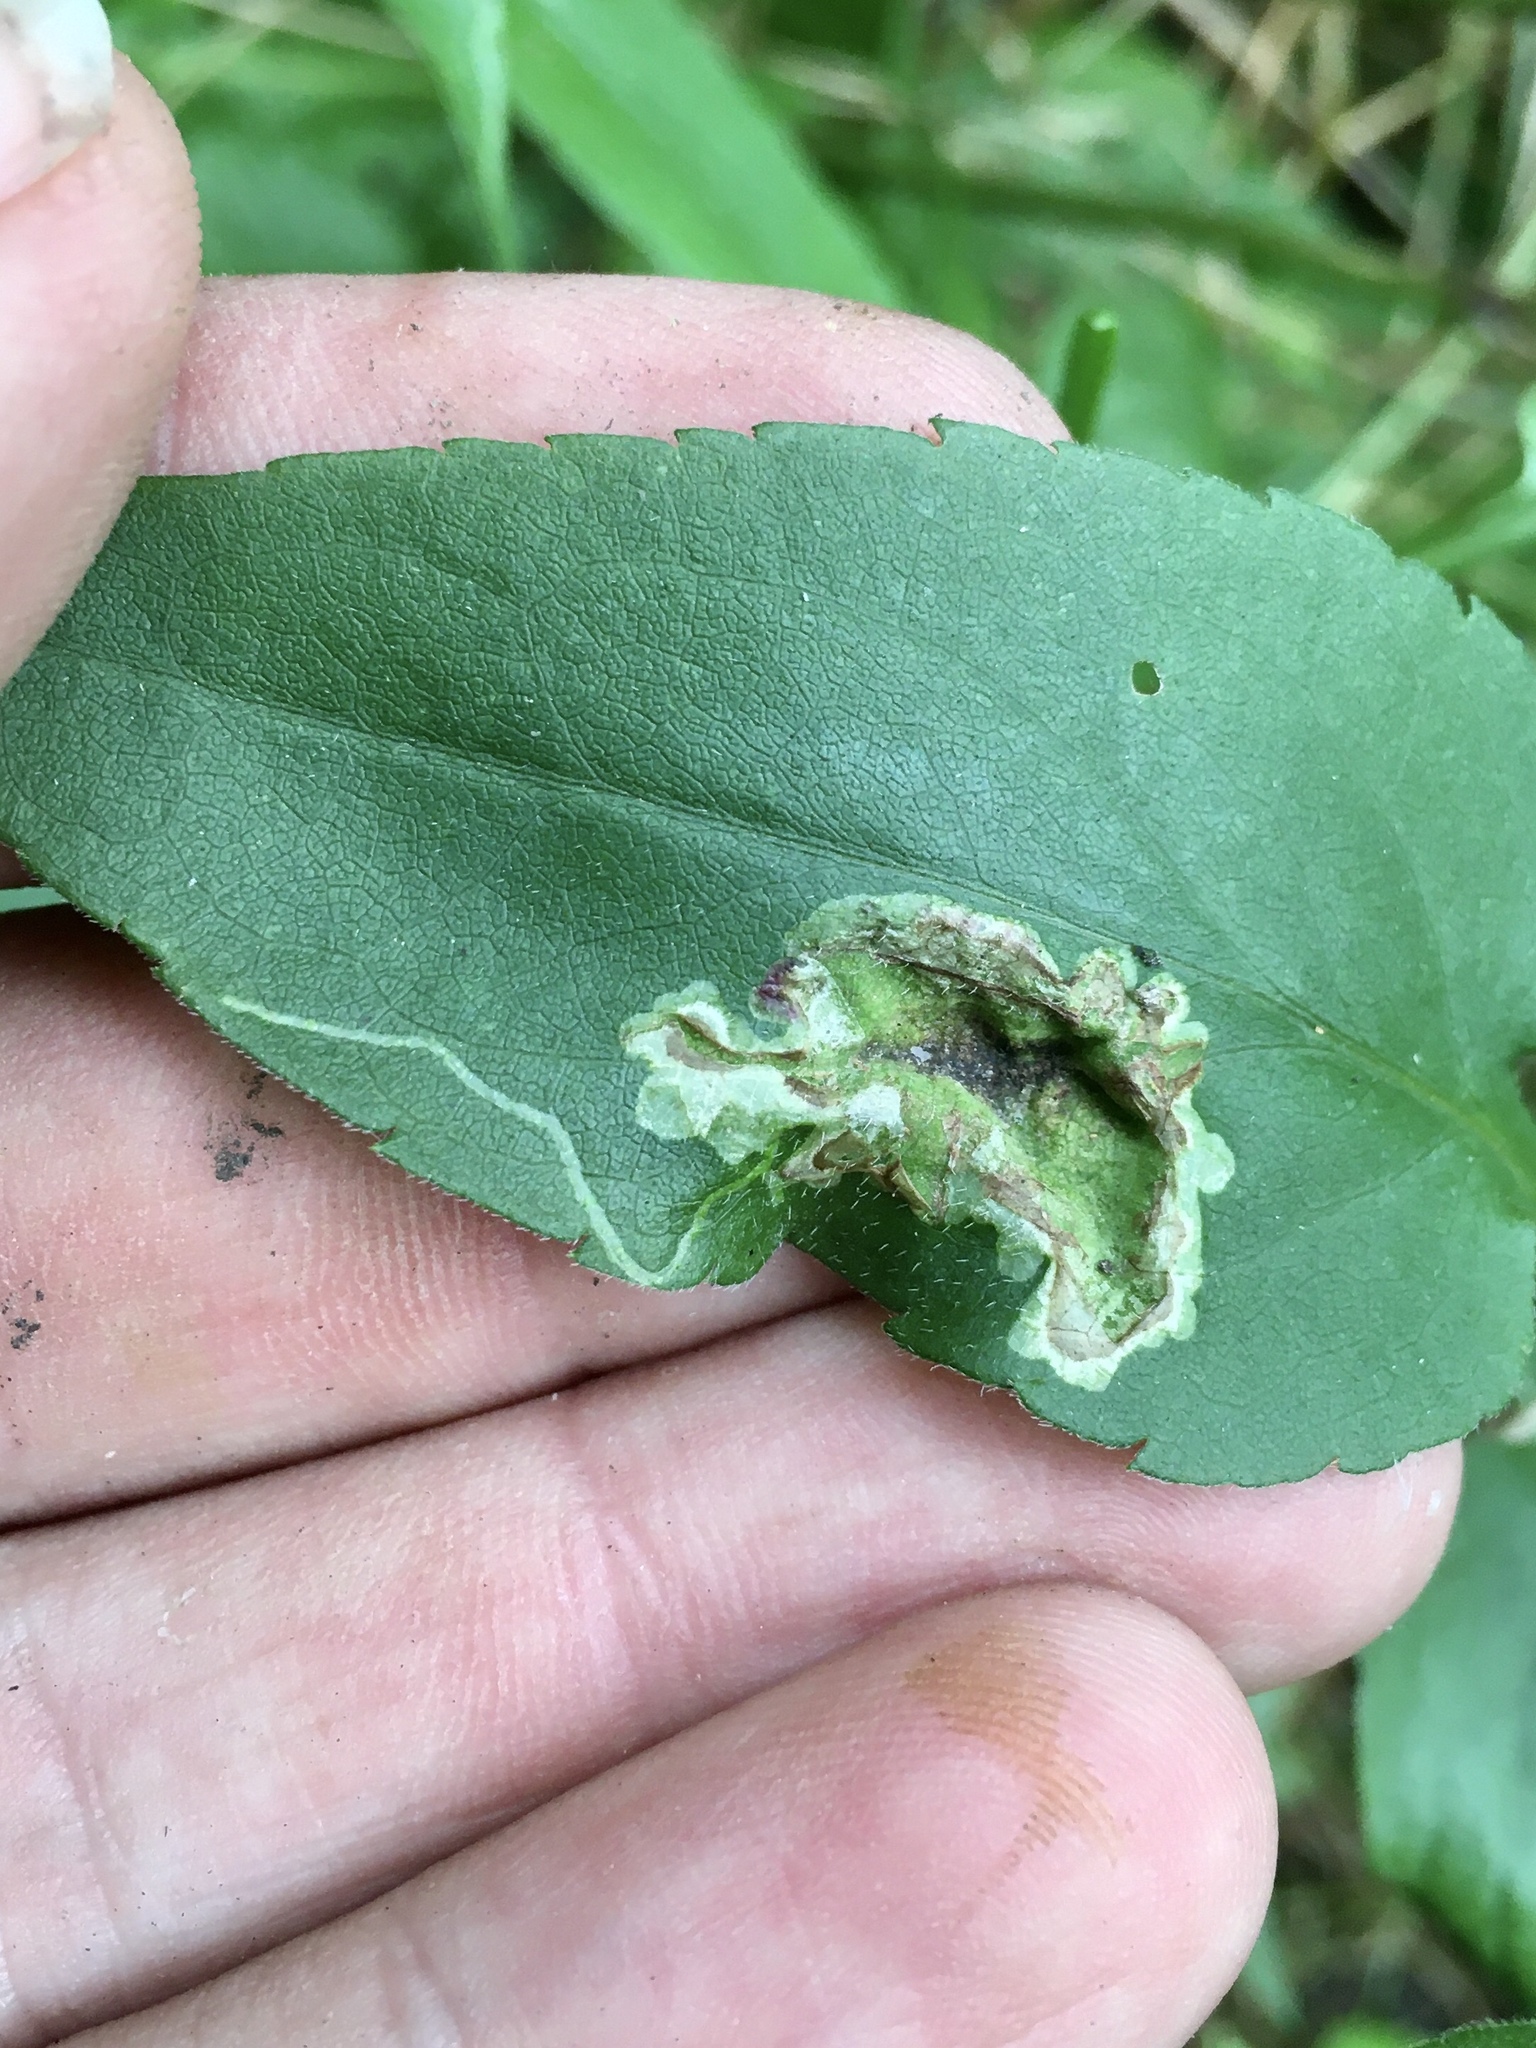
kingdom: Animalia
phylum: Arthropoda
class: Insecta
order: Diptera
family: Agromyzidae
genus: Calycomyza
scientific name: Calycomyza promissa
